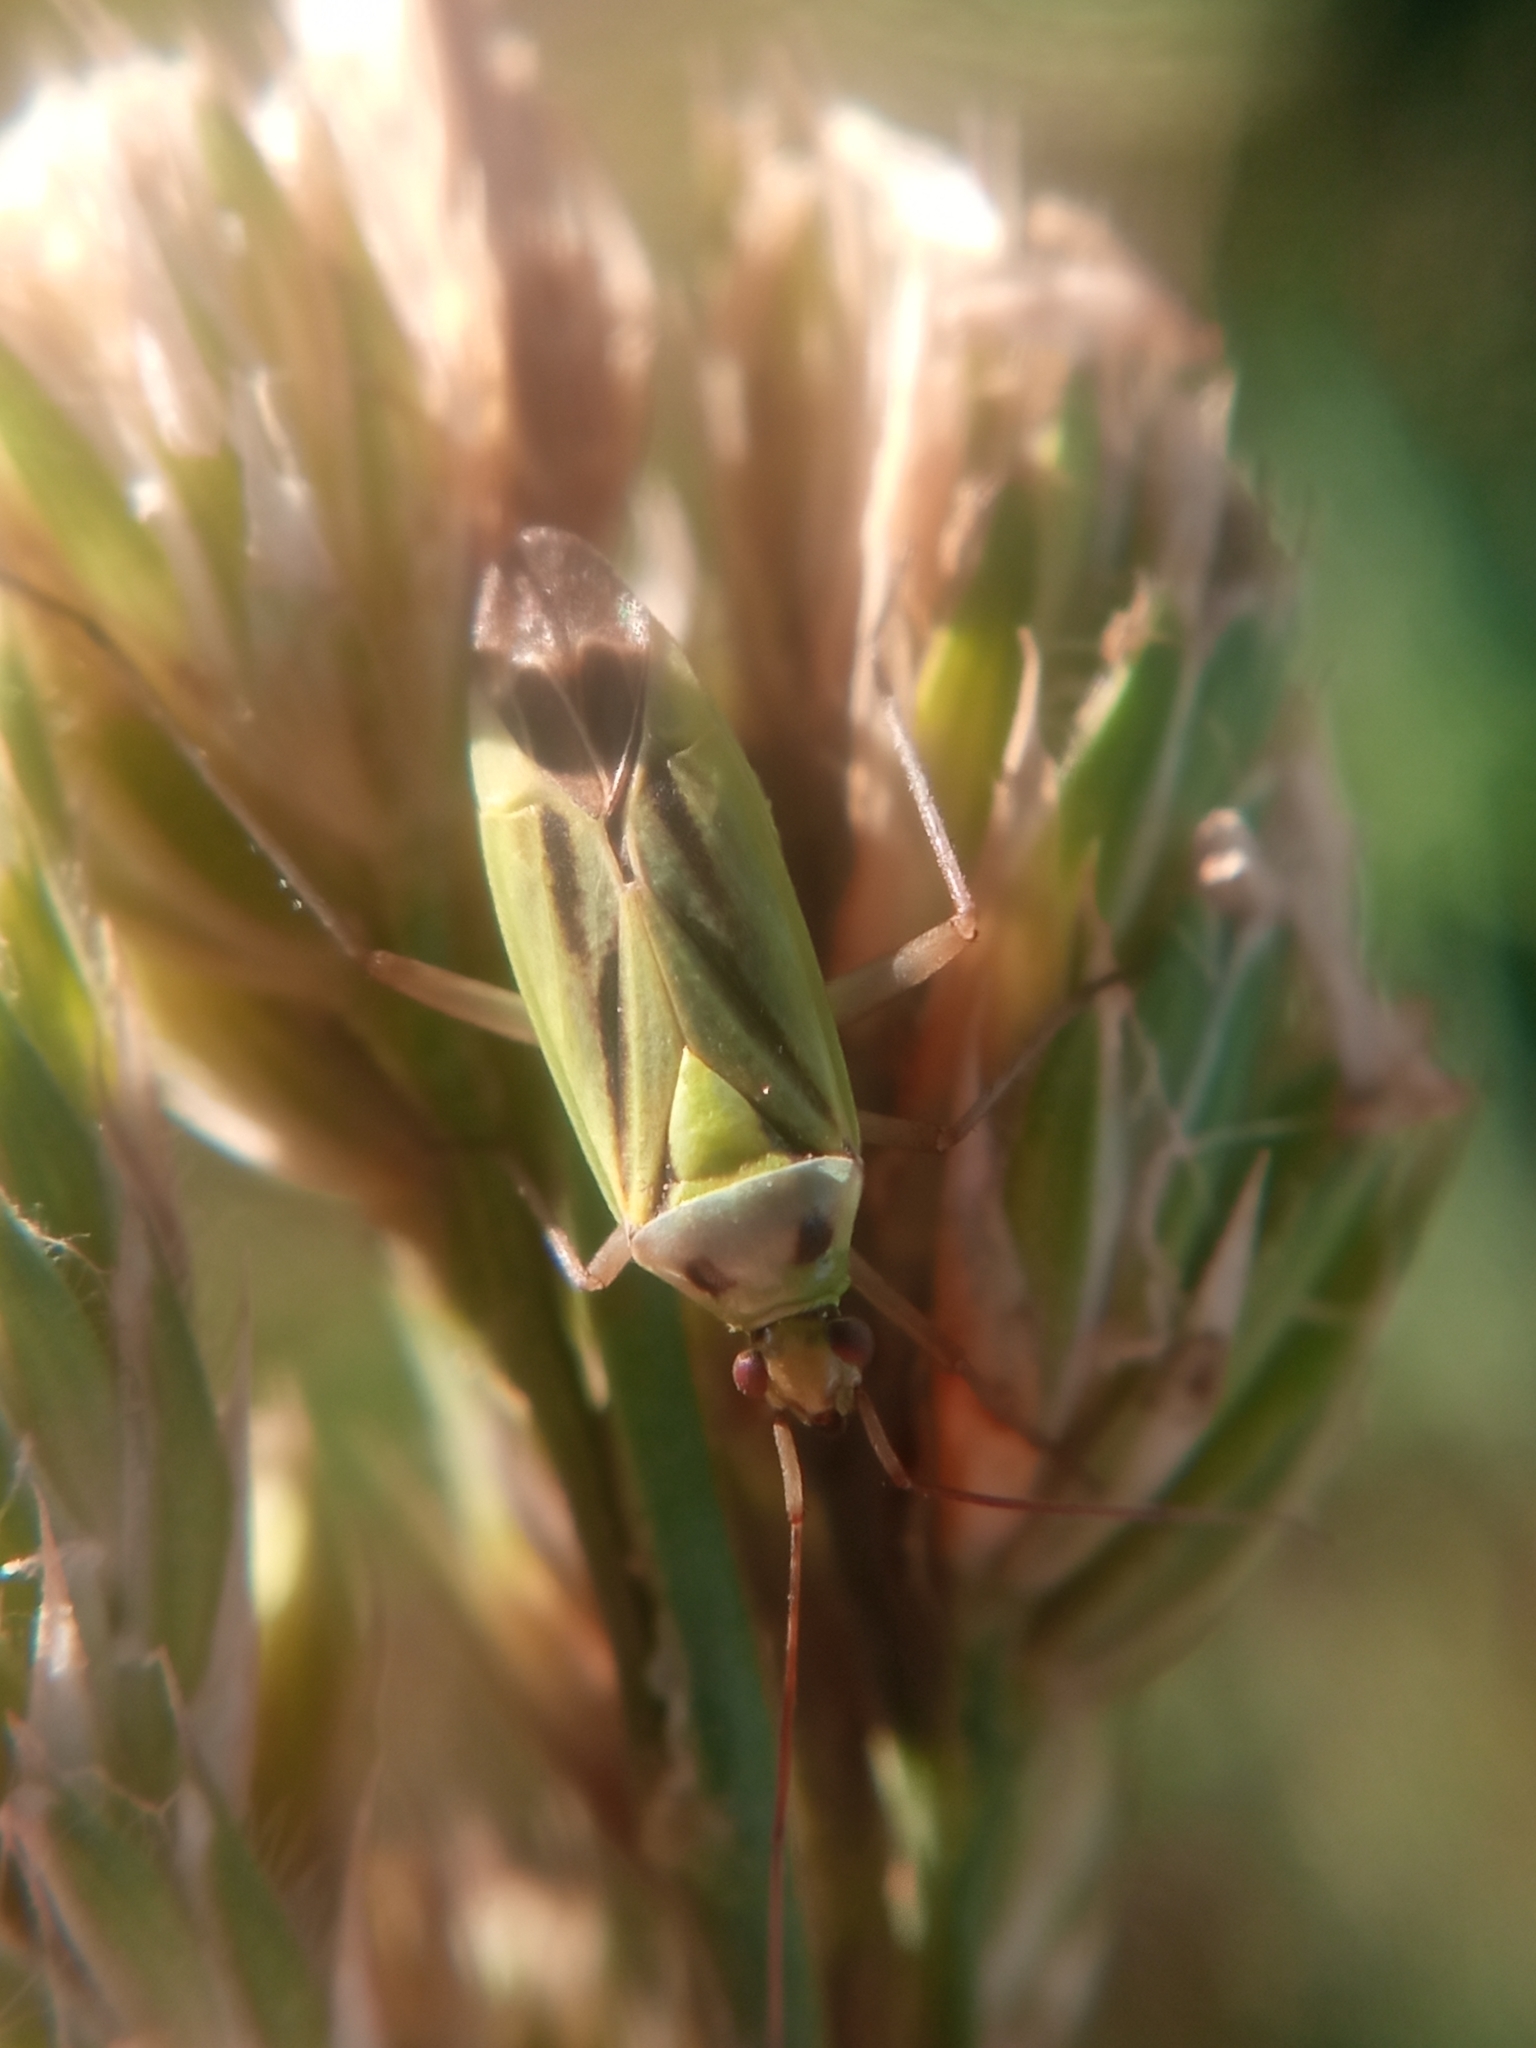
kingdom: Animalia
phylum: Arthropoda
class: Insecta
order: Hemiptera
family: Miridae
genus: Stenotus
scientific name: Stenotus binotatus
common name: Plant bug
